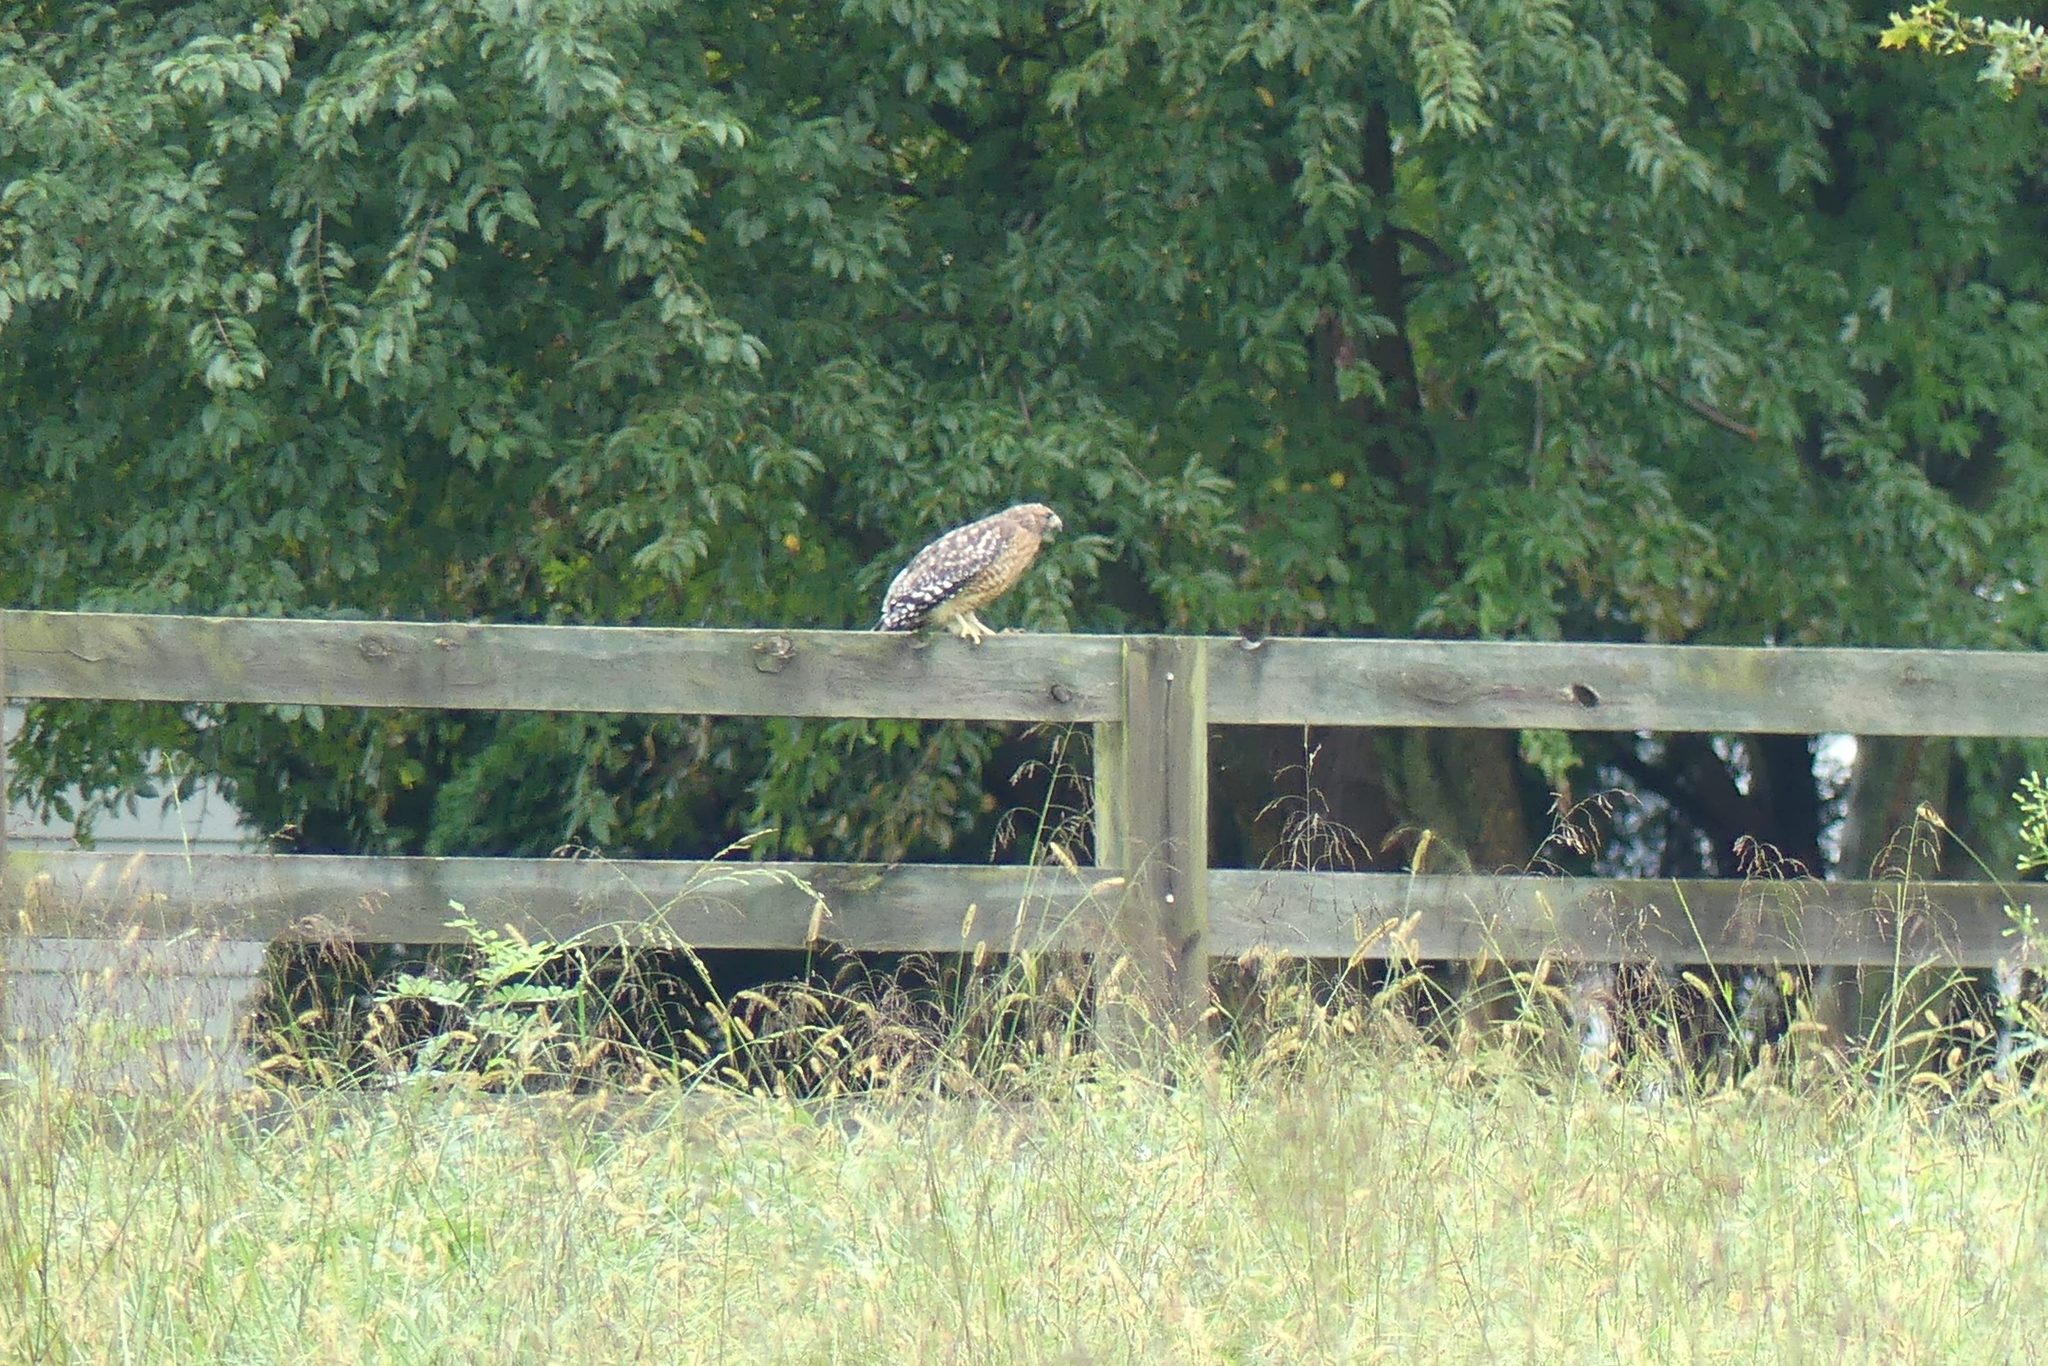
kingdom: Animalia
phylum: Chordata
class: Aves
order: Accipitriformes
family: Accipitridae
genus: Buteo
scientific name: Buteo lineatus
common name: Red-shouldered hawk
